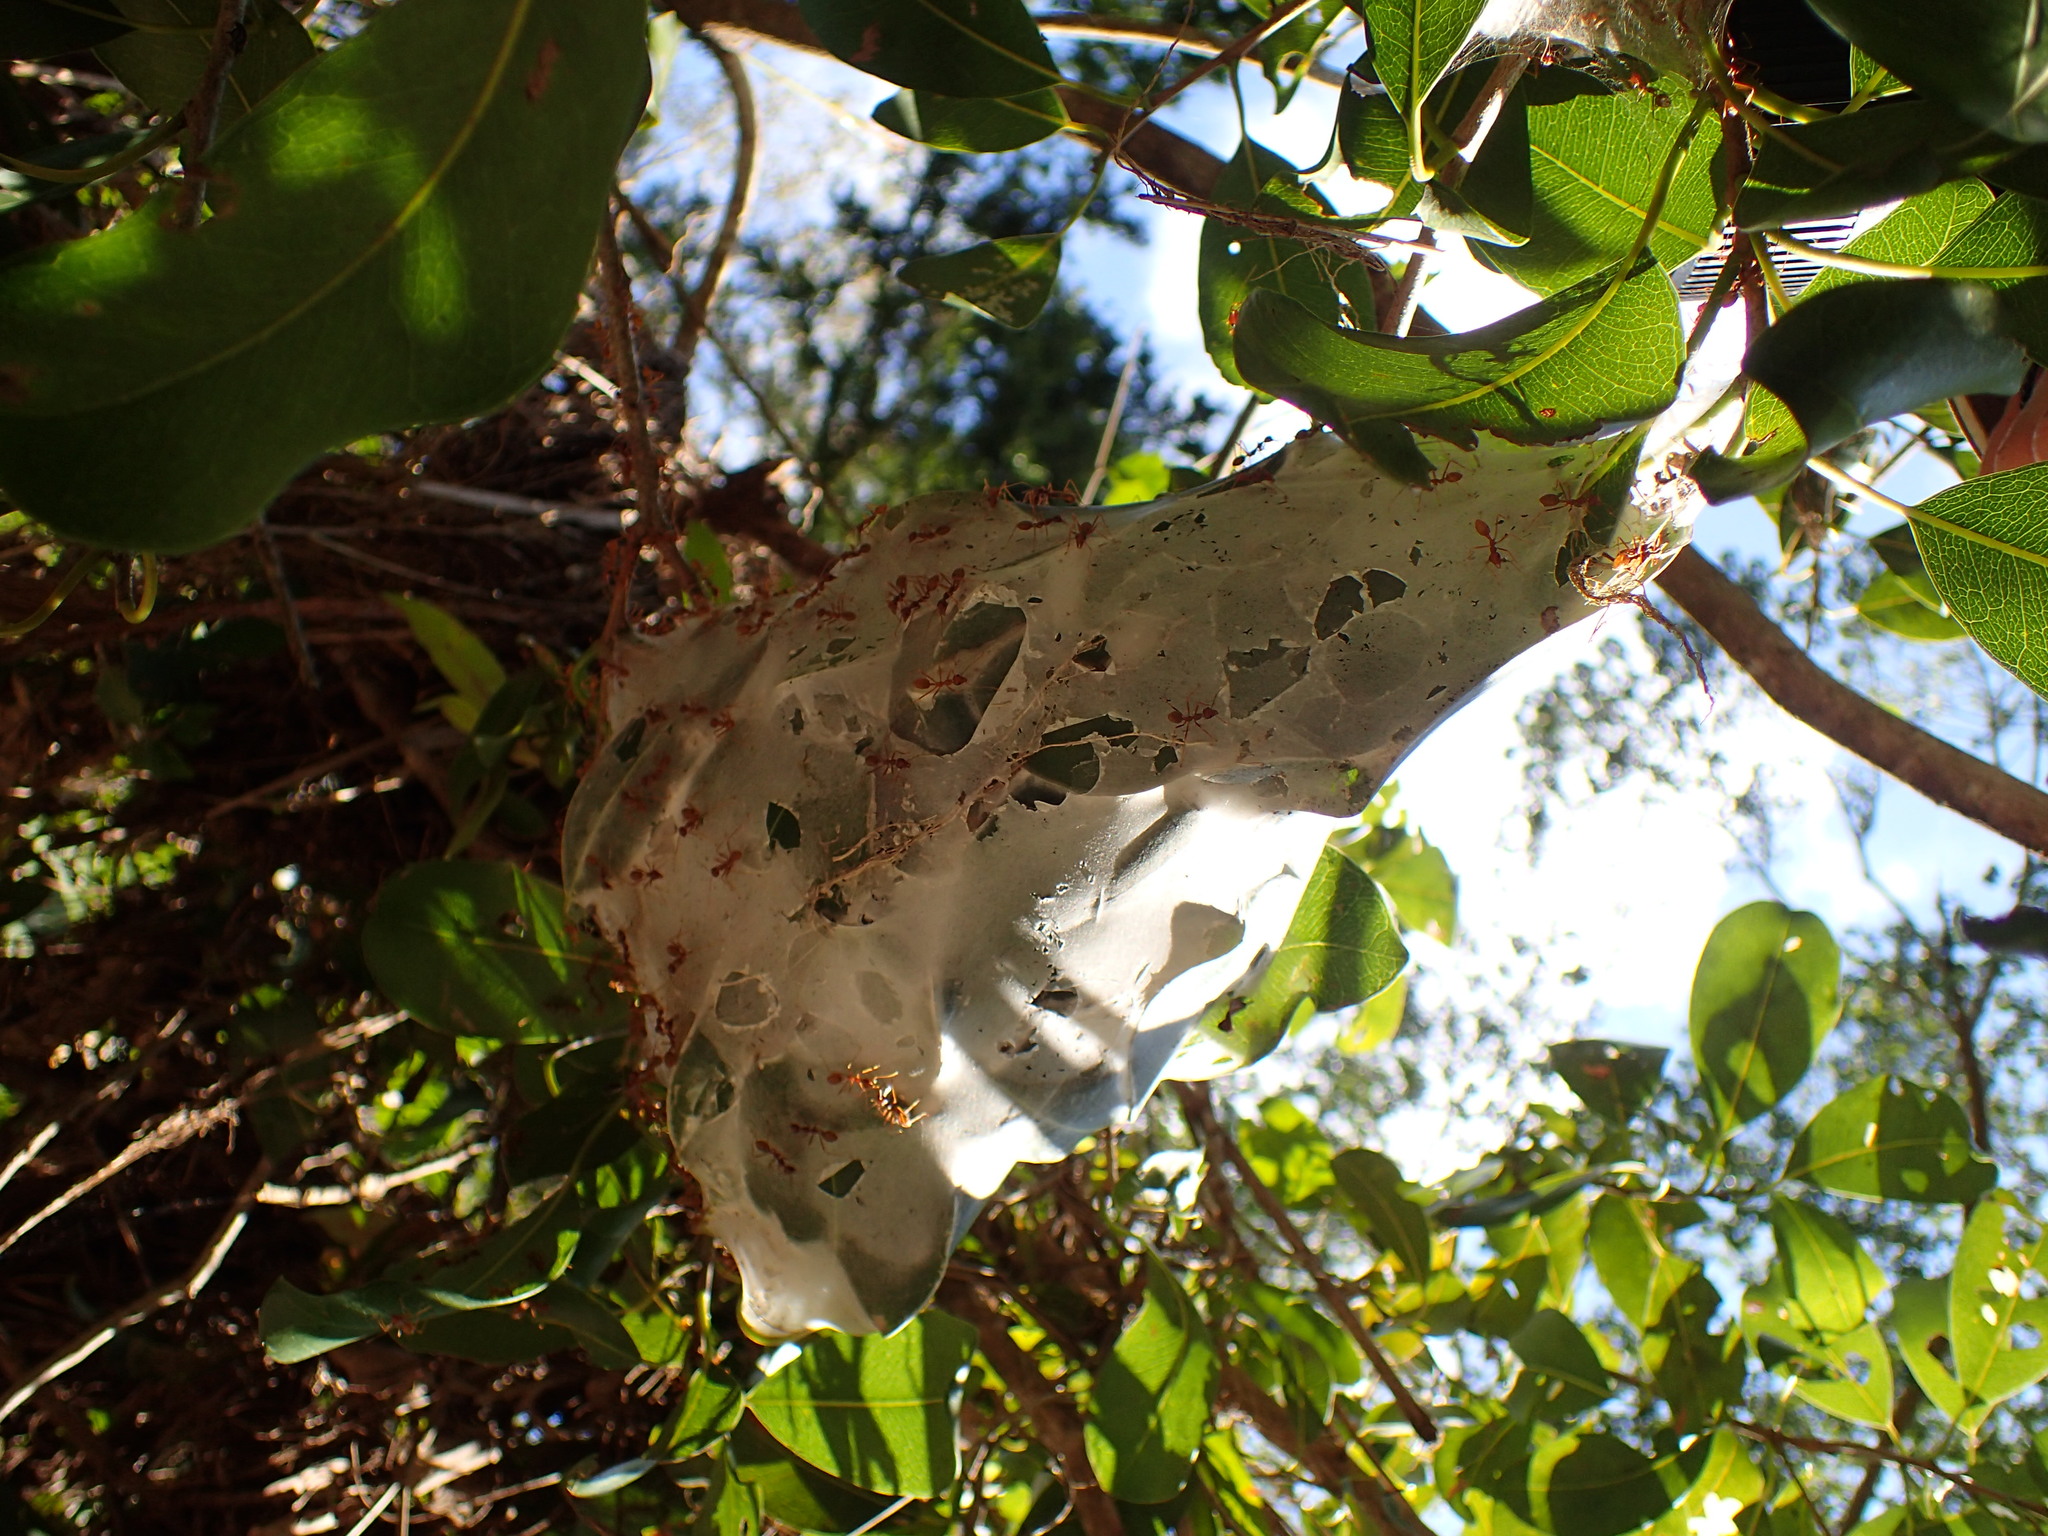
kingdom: Animalia
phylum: Arthropoda
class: Insecta
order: Hymenoptera
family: Formicidae
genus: Oecophylla
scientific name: Oecophylla longinoda
